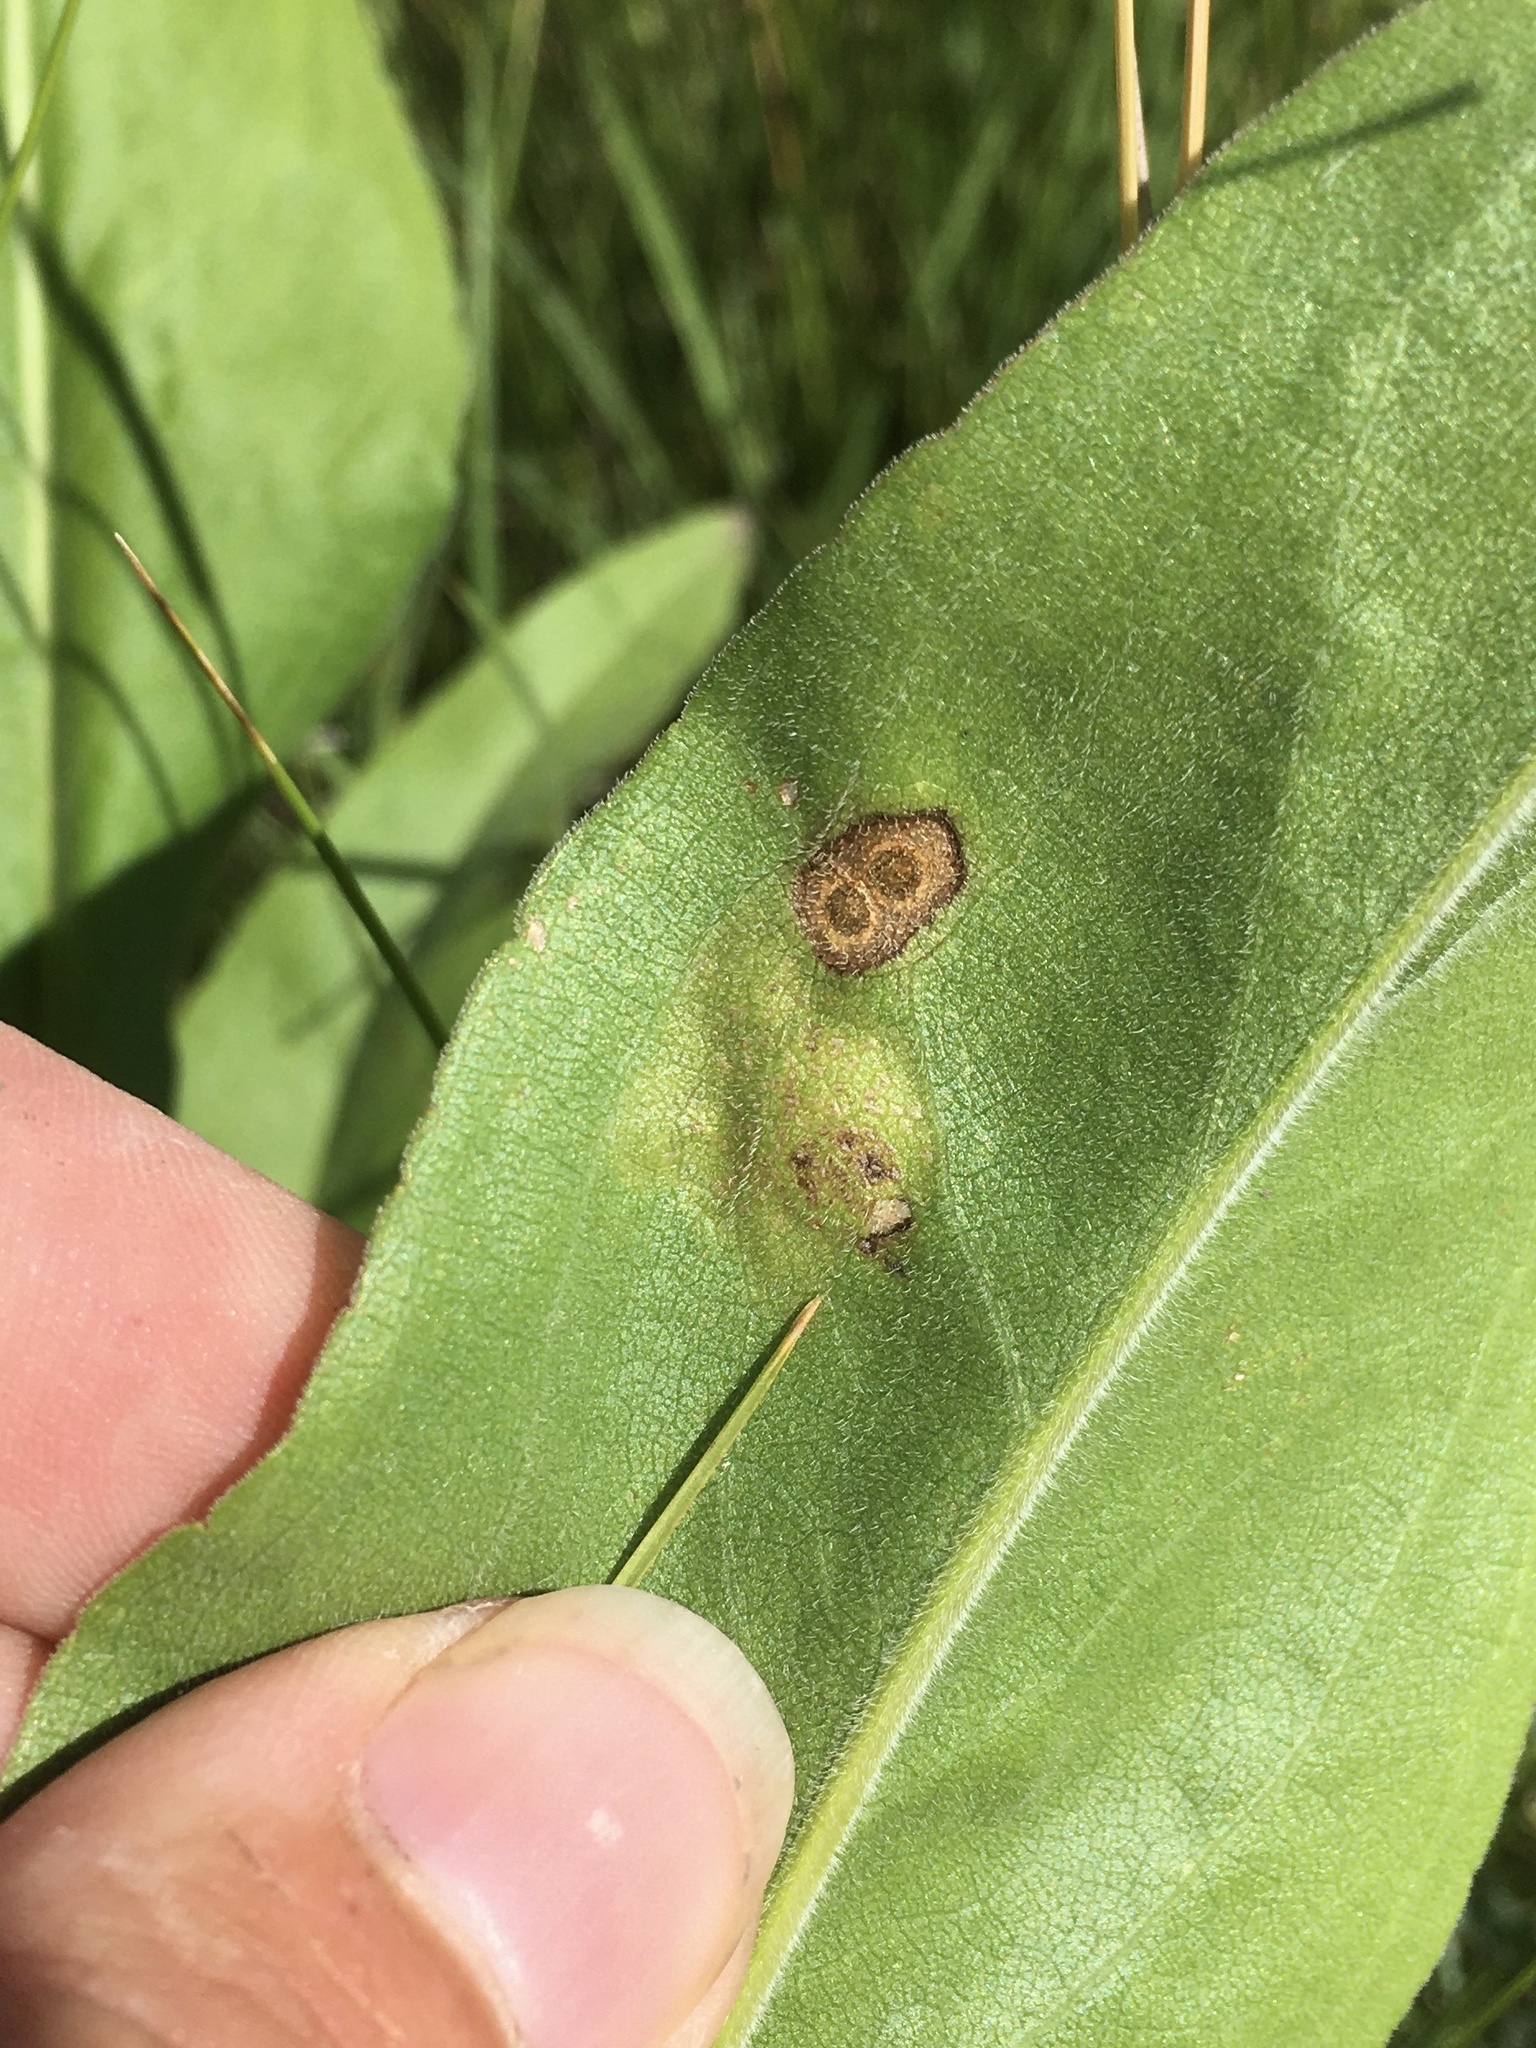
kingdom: Animalia
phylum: Arthropoda
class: Insecta
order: Lepidoptera
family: Tischeriidae
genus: Astrotischeria
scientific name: Astrotischeria solidagonifoliella
